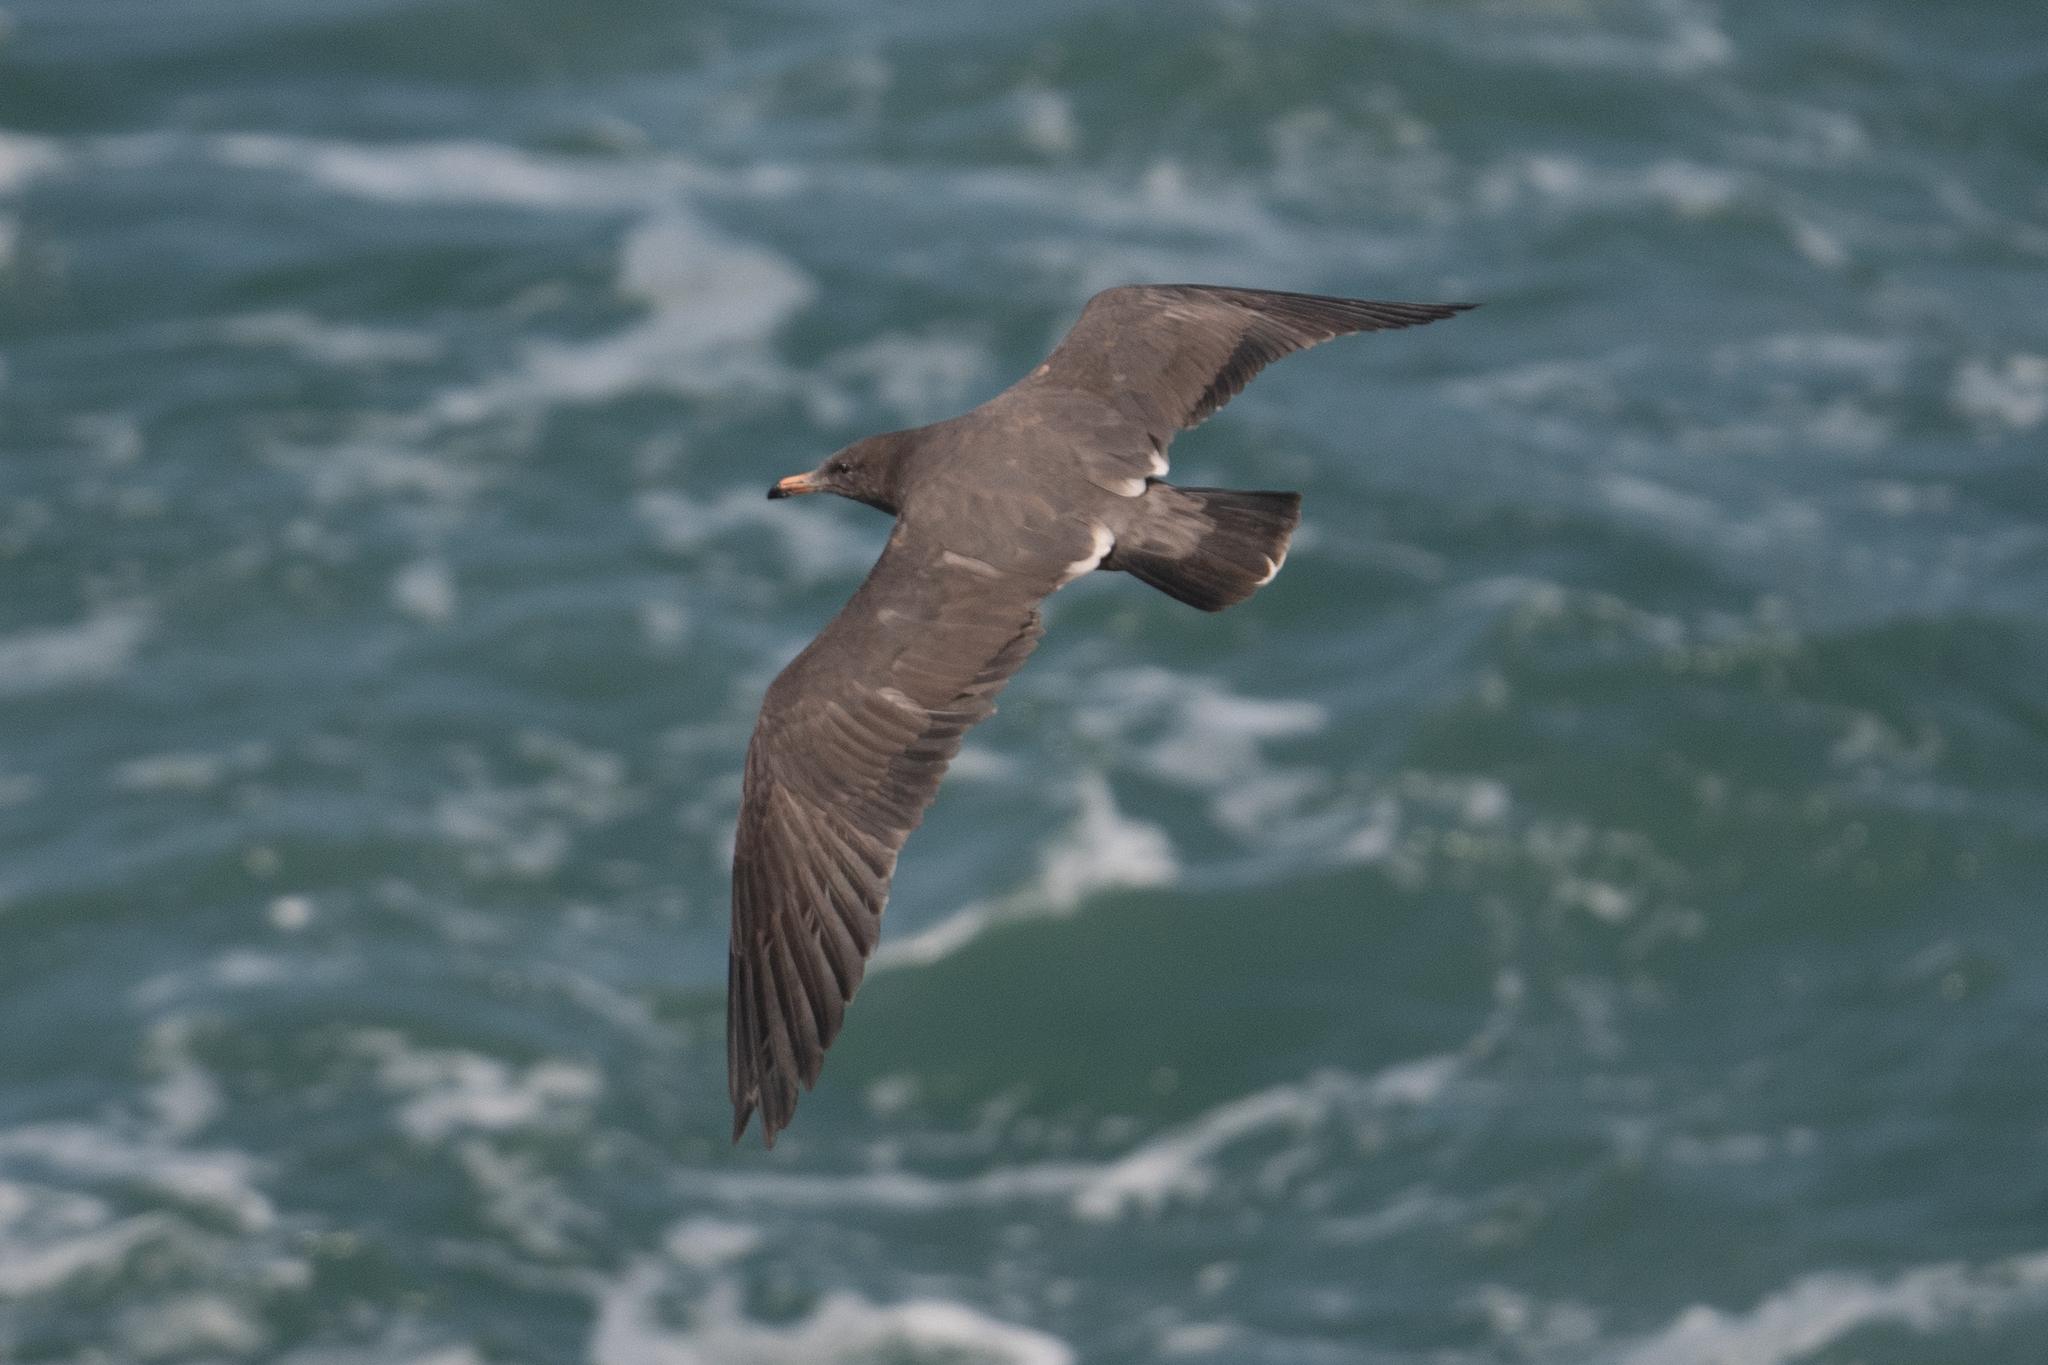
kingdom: Animalia
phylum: Chordata
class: Aves
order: Charadriiformes
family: Laridae
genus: Larus
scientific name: Larus heermanni
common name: Heermann's gull
